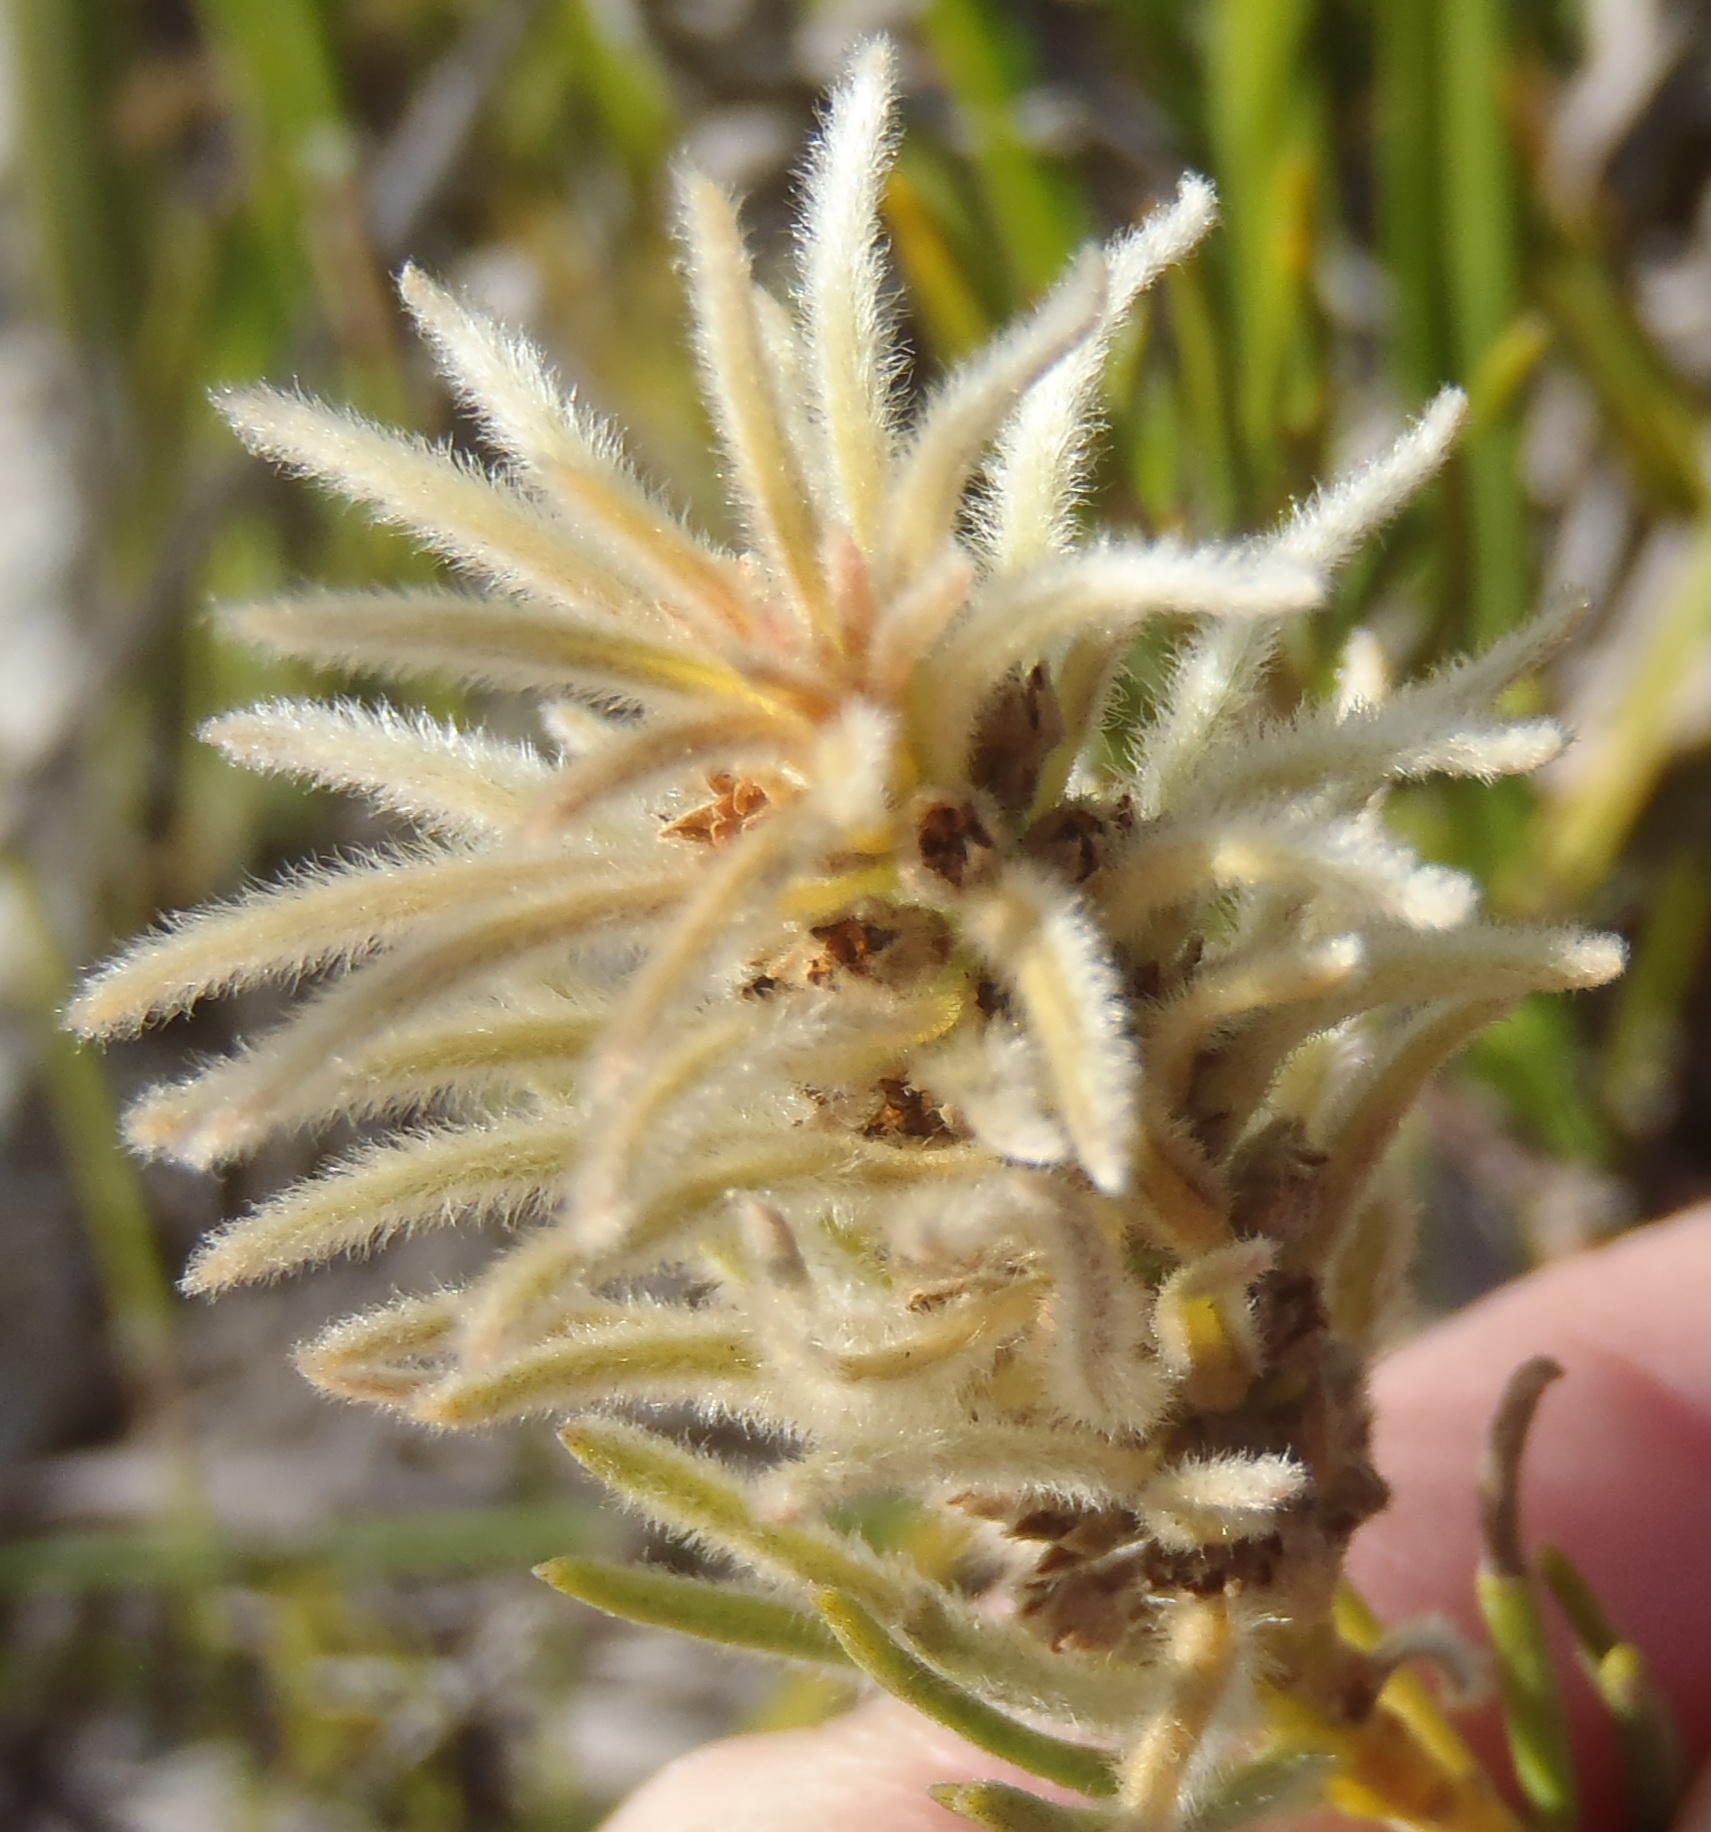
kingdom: Plantae
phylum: Tracheophyta
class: Magnoliopsida
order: Rosales
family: Rhamnaceae
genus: Phylica
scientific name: Phylica velutina
